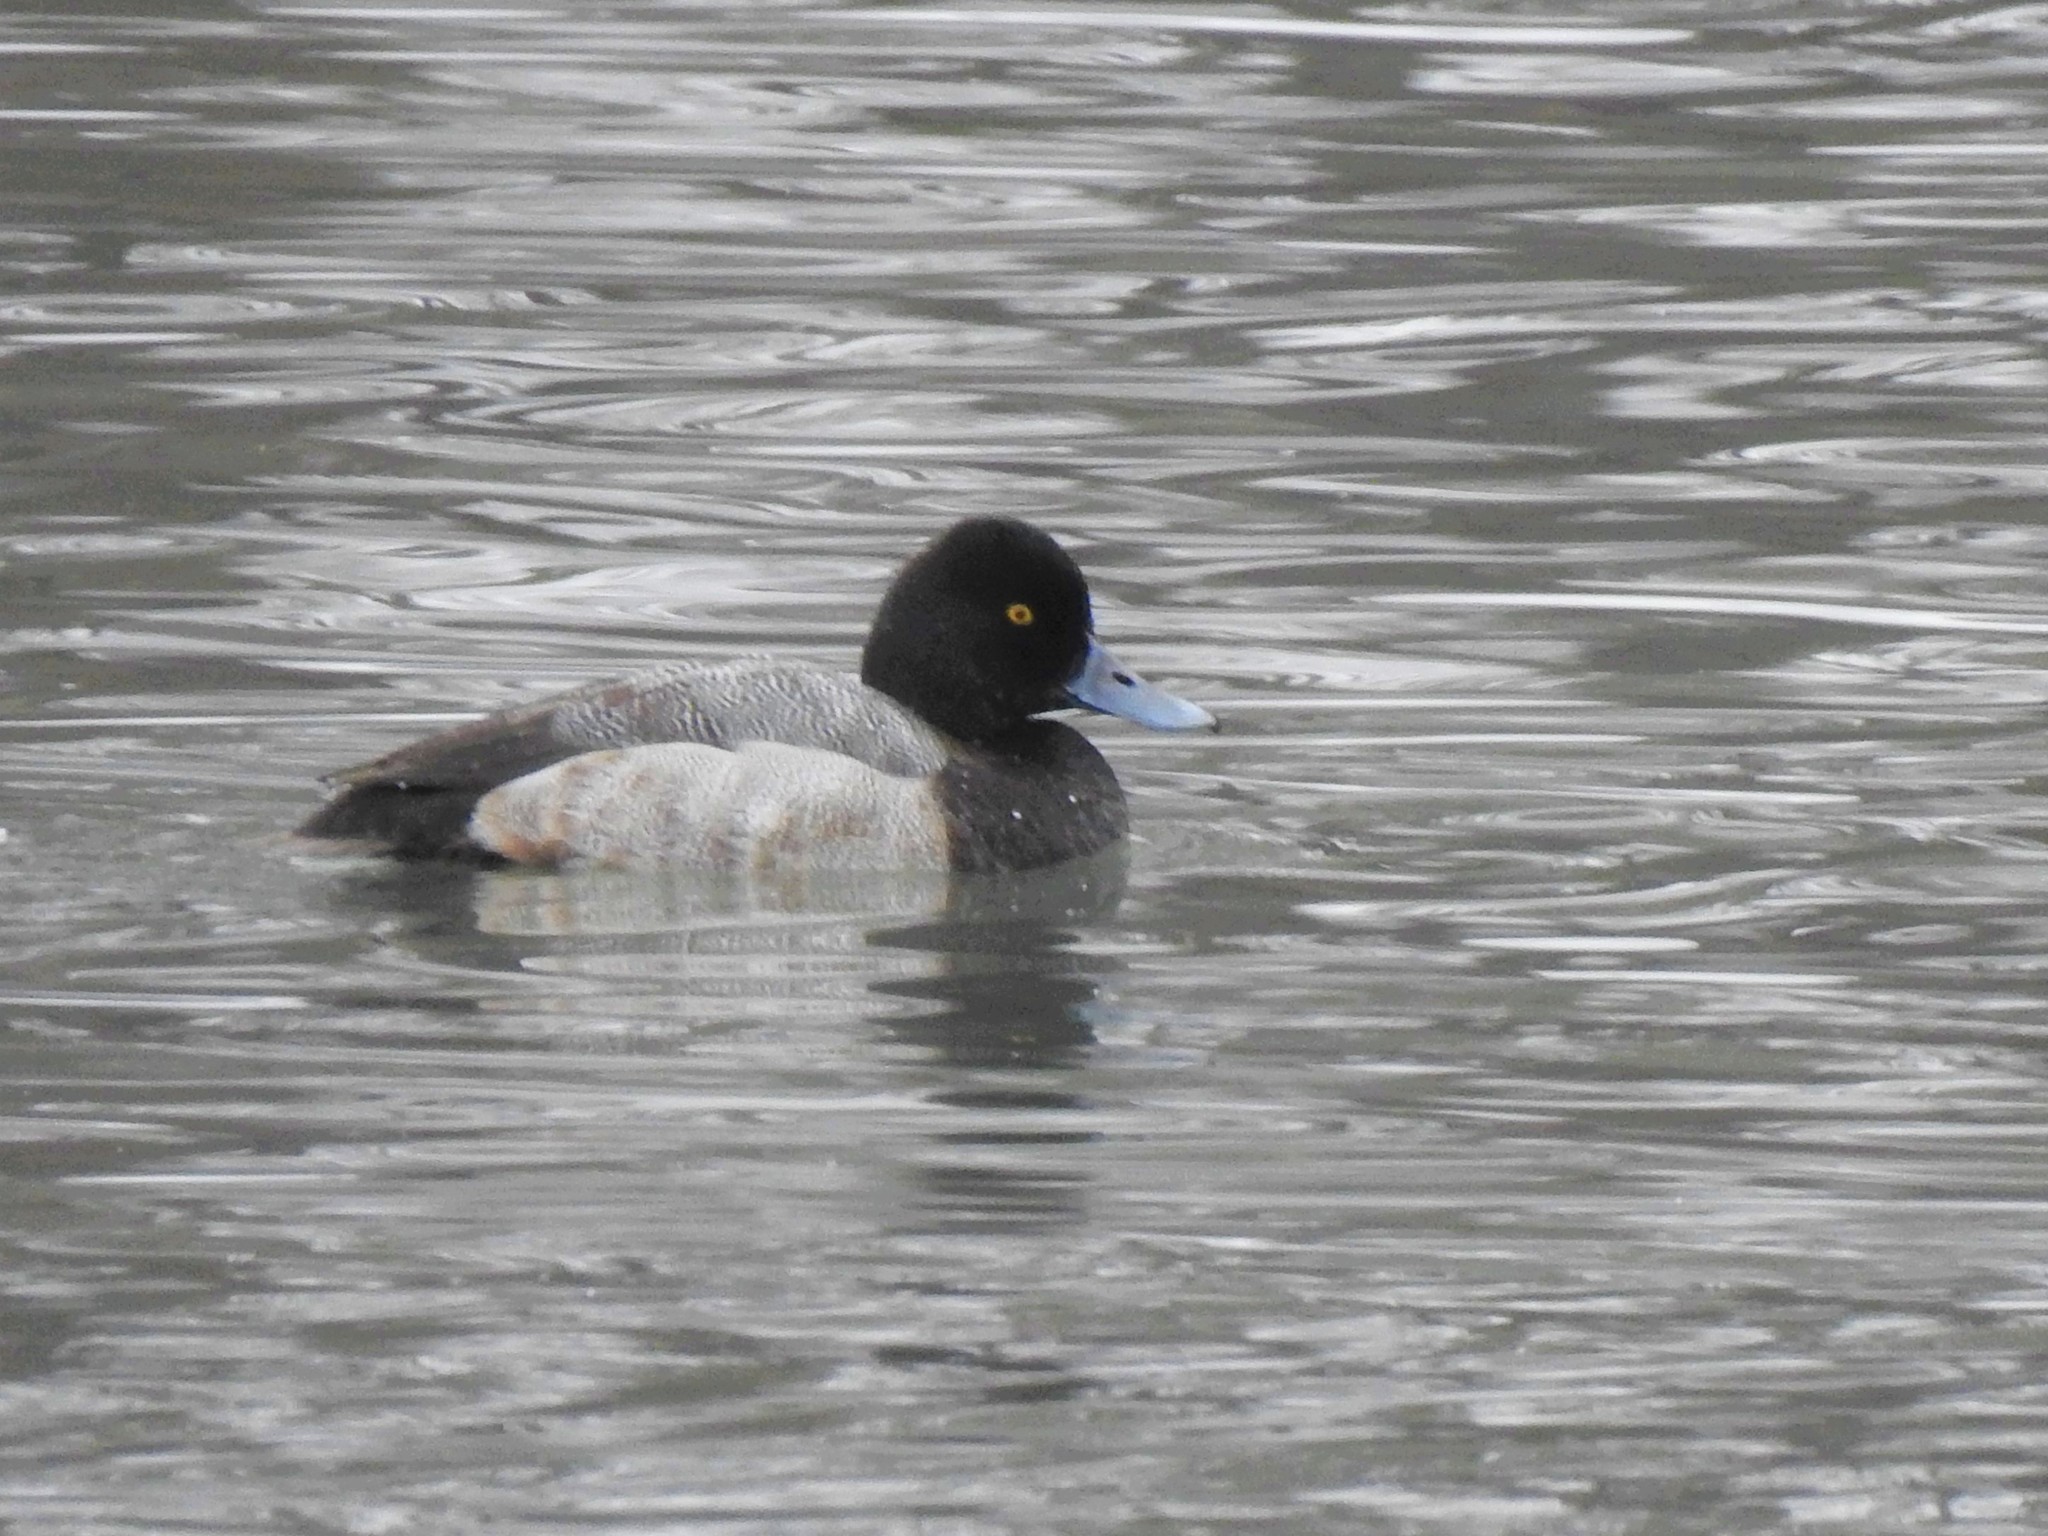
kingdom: Animalia
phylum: Chordata
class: Aves
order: Anseriformes
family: Anatidae
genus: Aythya
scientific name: Aythya affinis
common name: Lesser scaup
